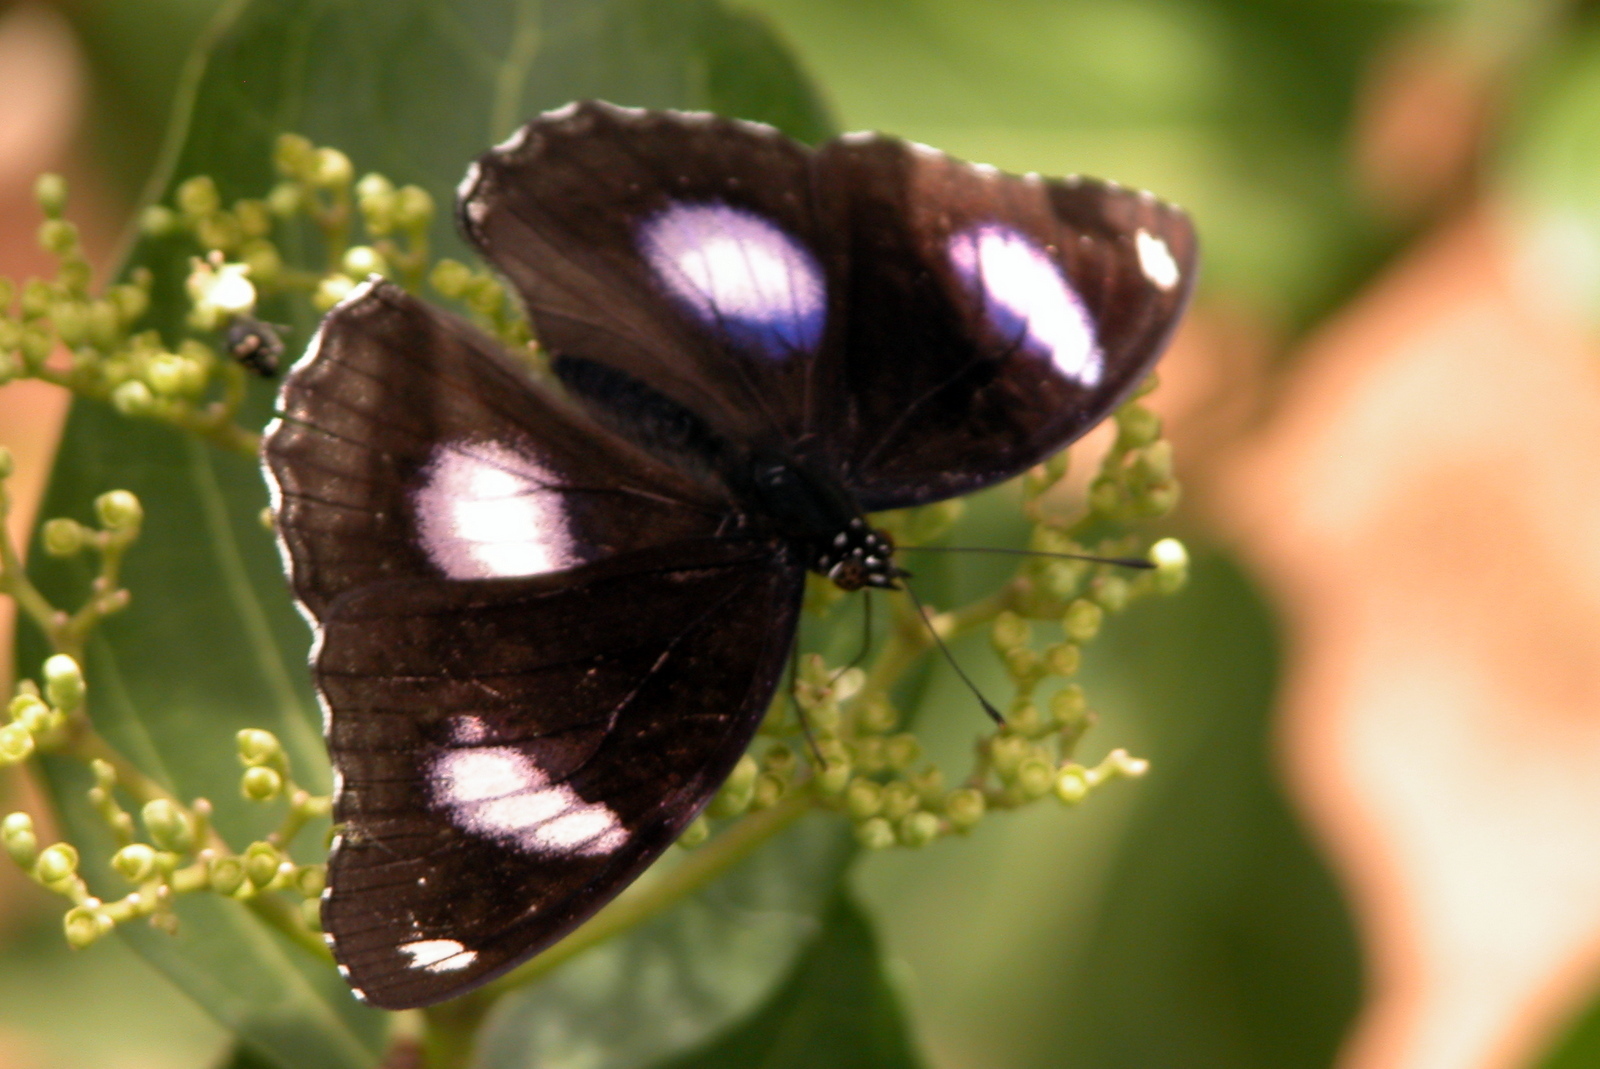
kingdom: Animalia
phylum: Arthropoda
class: Insecta
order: Lepidoptera
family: Nymphalidae
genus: Hypolimnas
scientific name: Hypolimnas bolina
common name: Great eggfly
